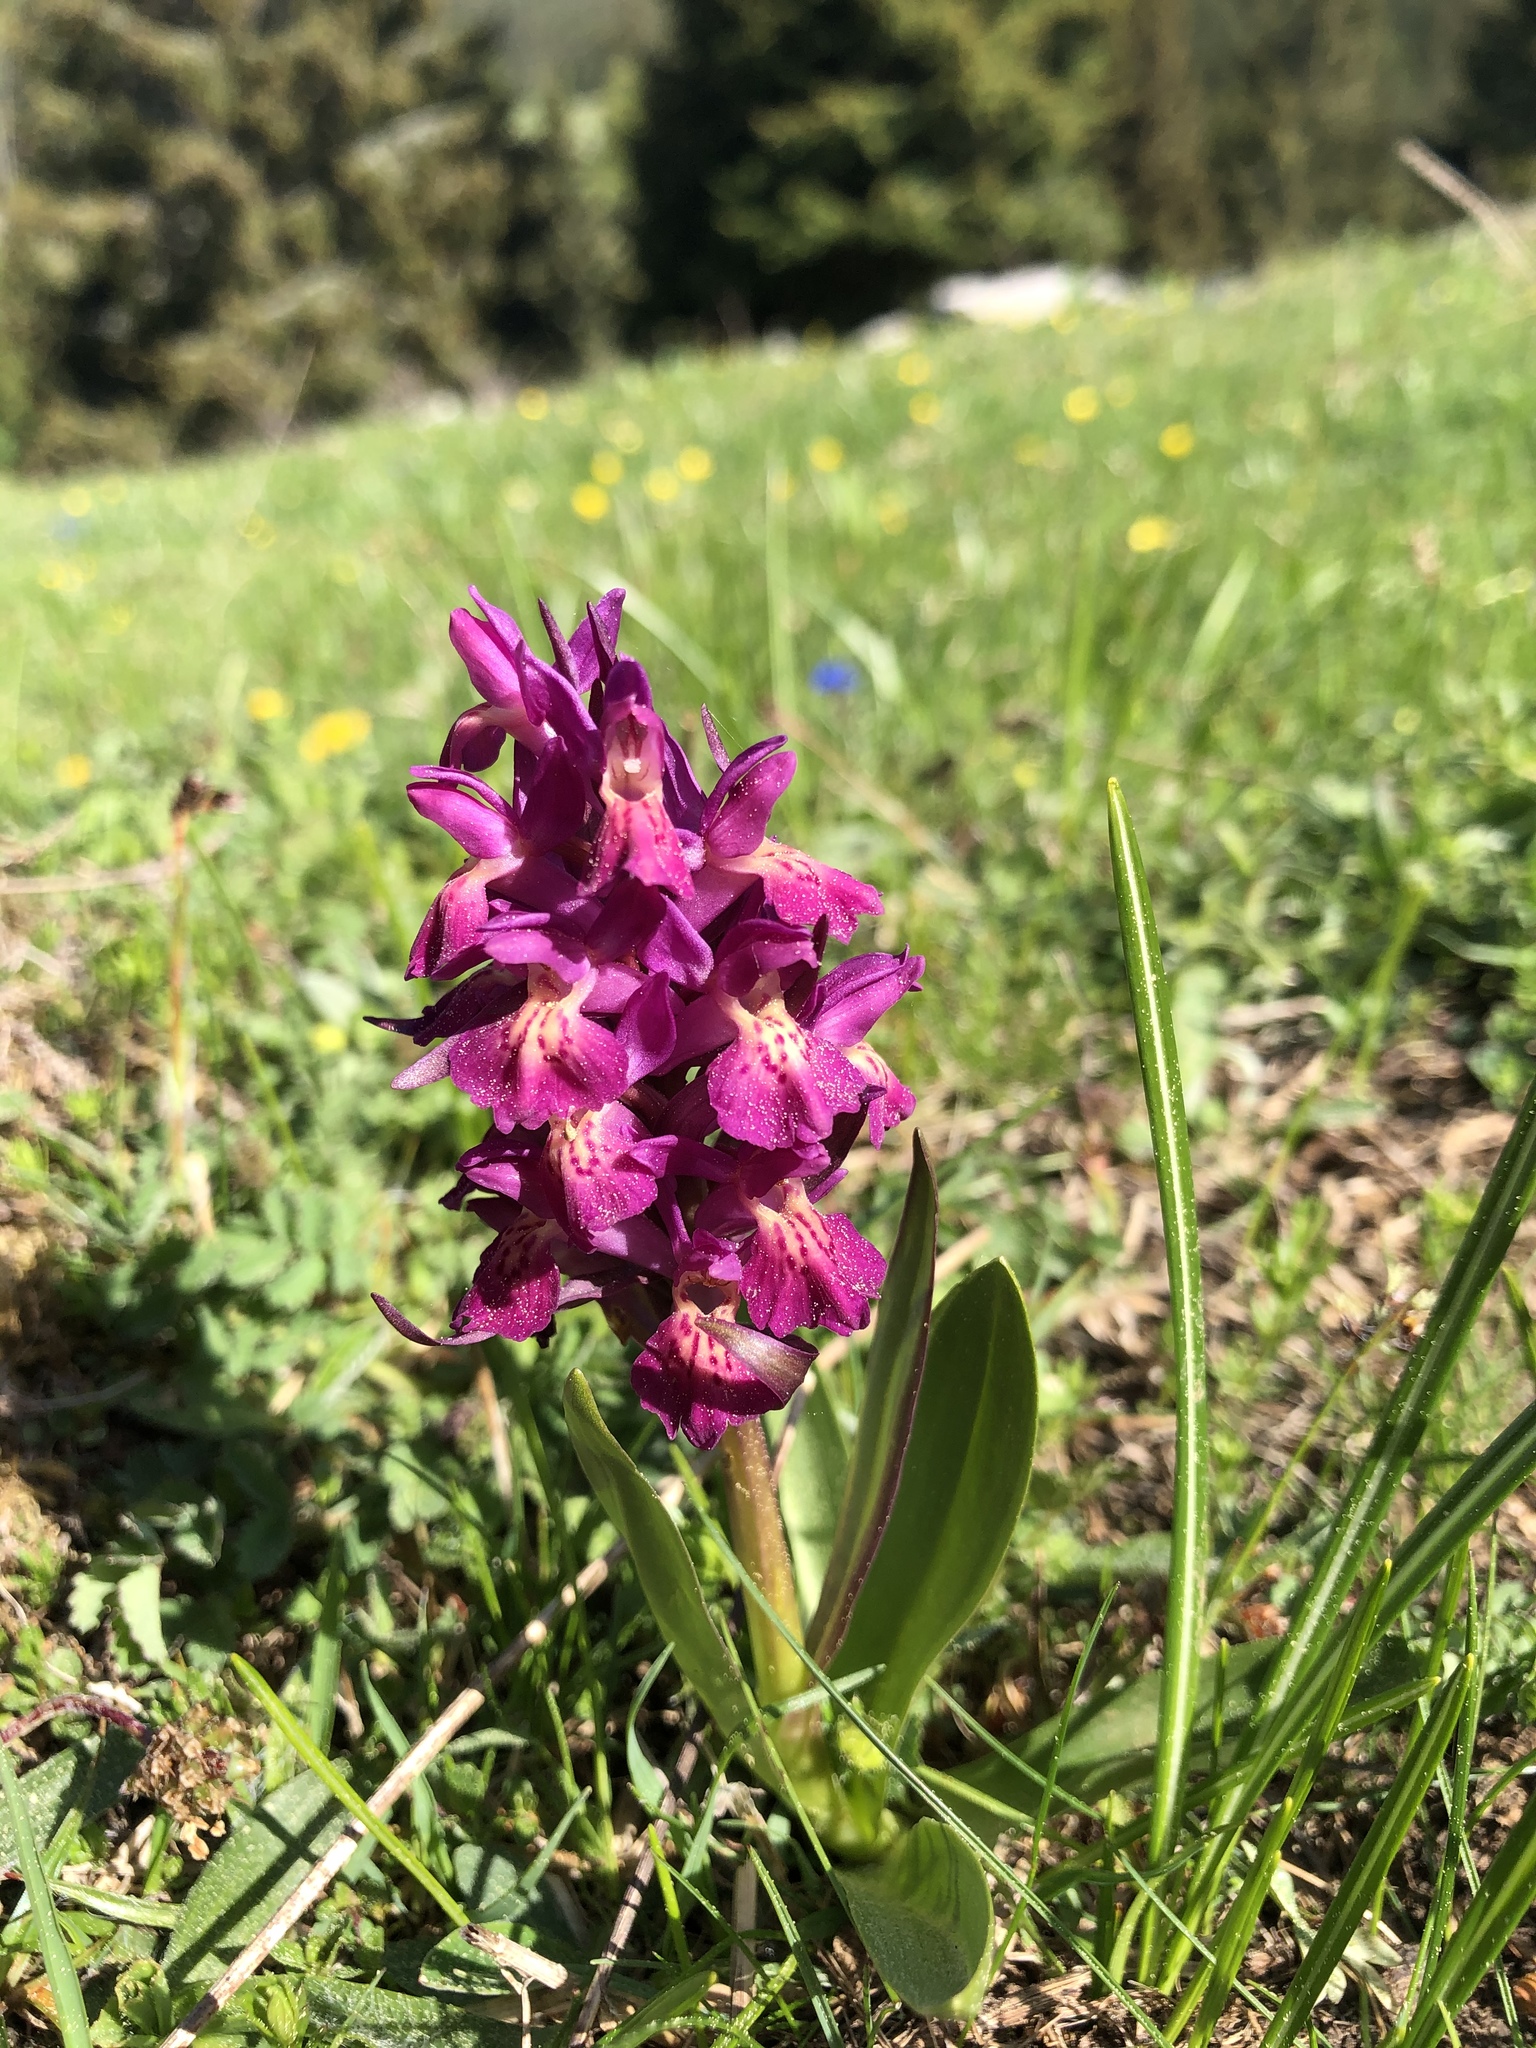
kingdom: Plantae
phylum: Tracheophyta
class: Liliopsida
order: Asparagales
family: Orchidaceae
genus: Dactylorhiza
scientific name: Dactylorhiza sambucina
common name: Elder-flowered orchid
